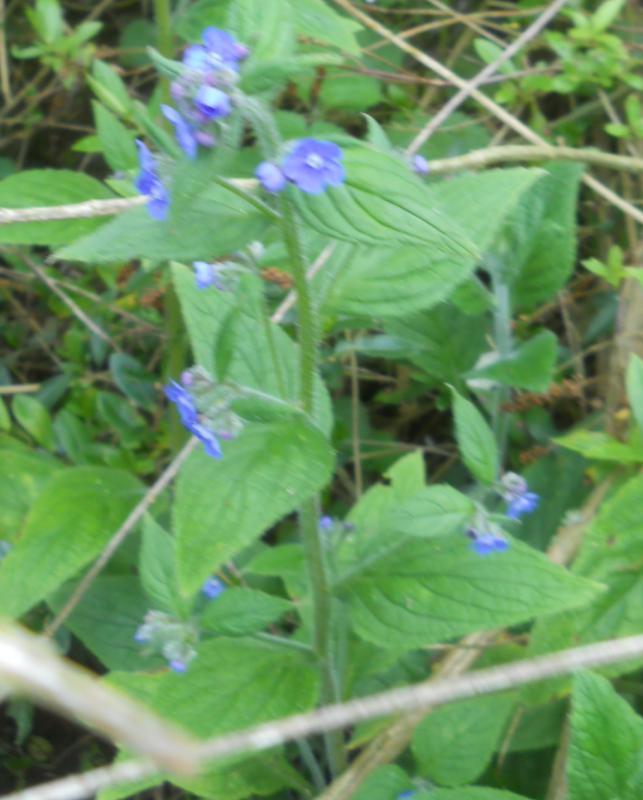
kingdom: Plantae
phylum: Tracheophyta
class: Magnoliopsida
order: Boraginales
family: Boraginaceae
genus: Pentaglottis
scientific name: Pentaglottis sempervirens
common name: Green alkanet
